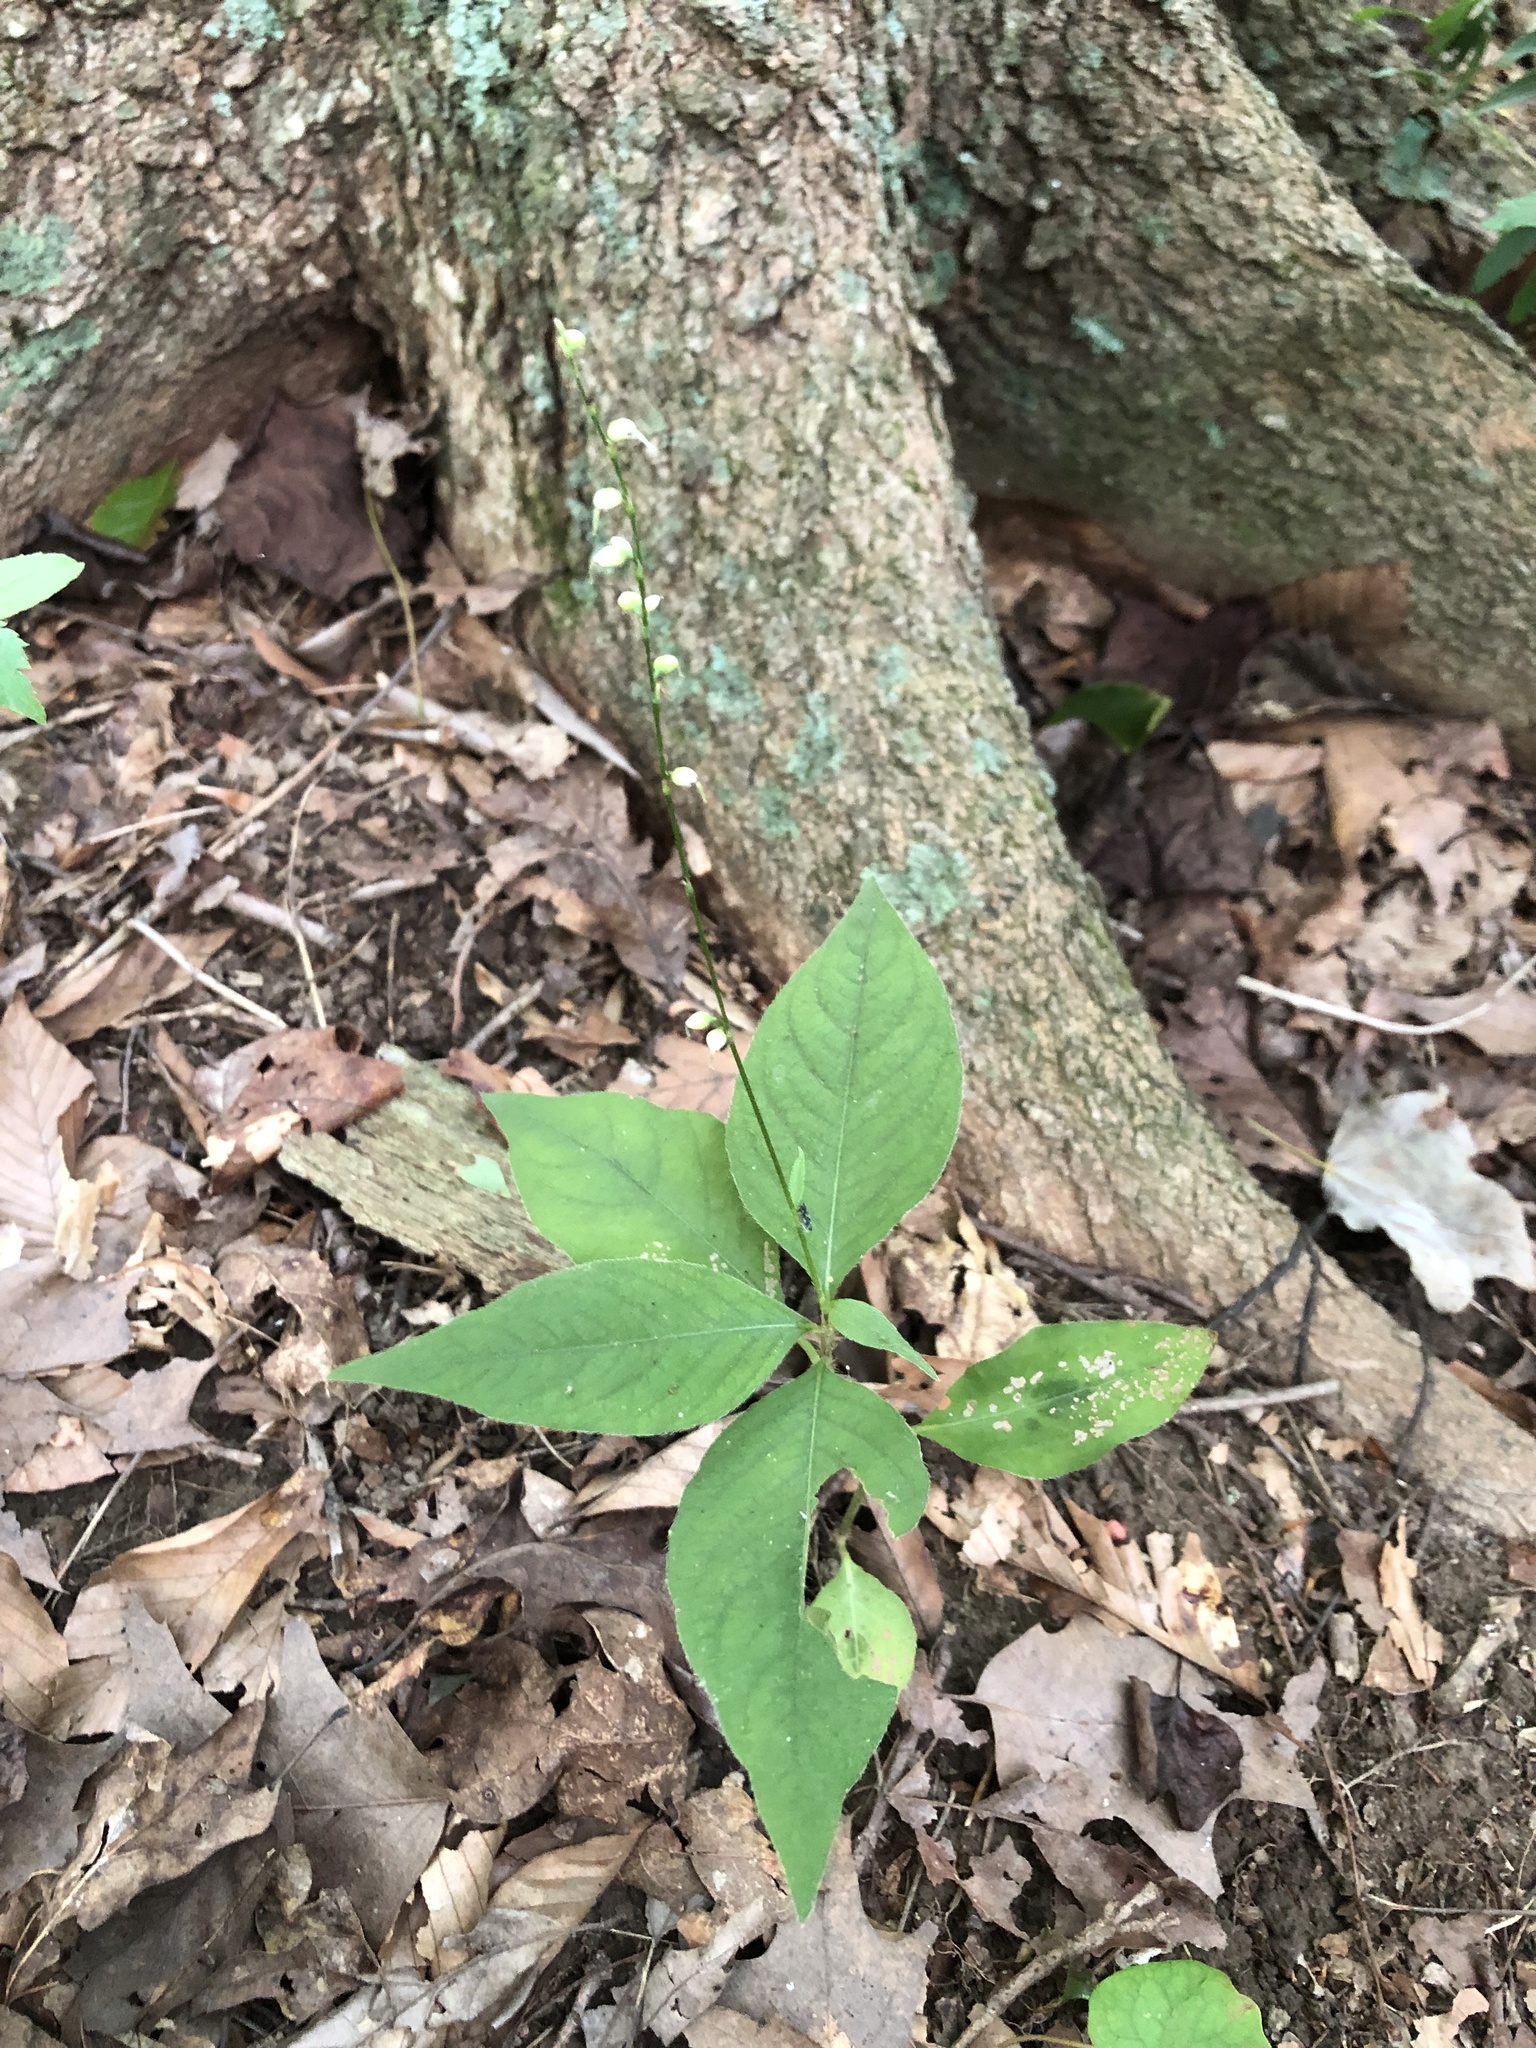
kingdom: Plantae
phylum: Tracheophyta
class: Magnoliopsida
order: Caryophyllales
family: Polygonaceae
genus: Persicaria
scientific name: Persicaria virginiana
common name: Jumpseed
